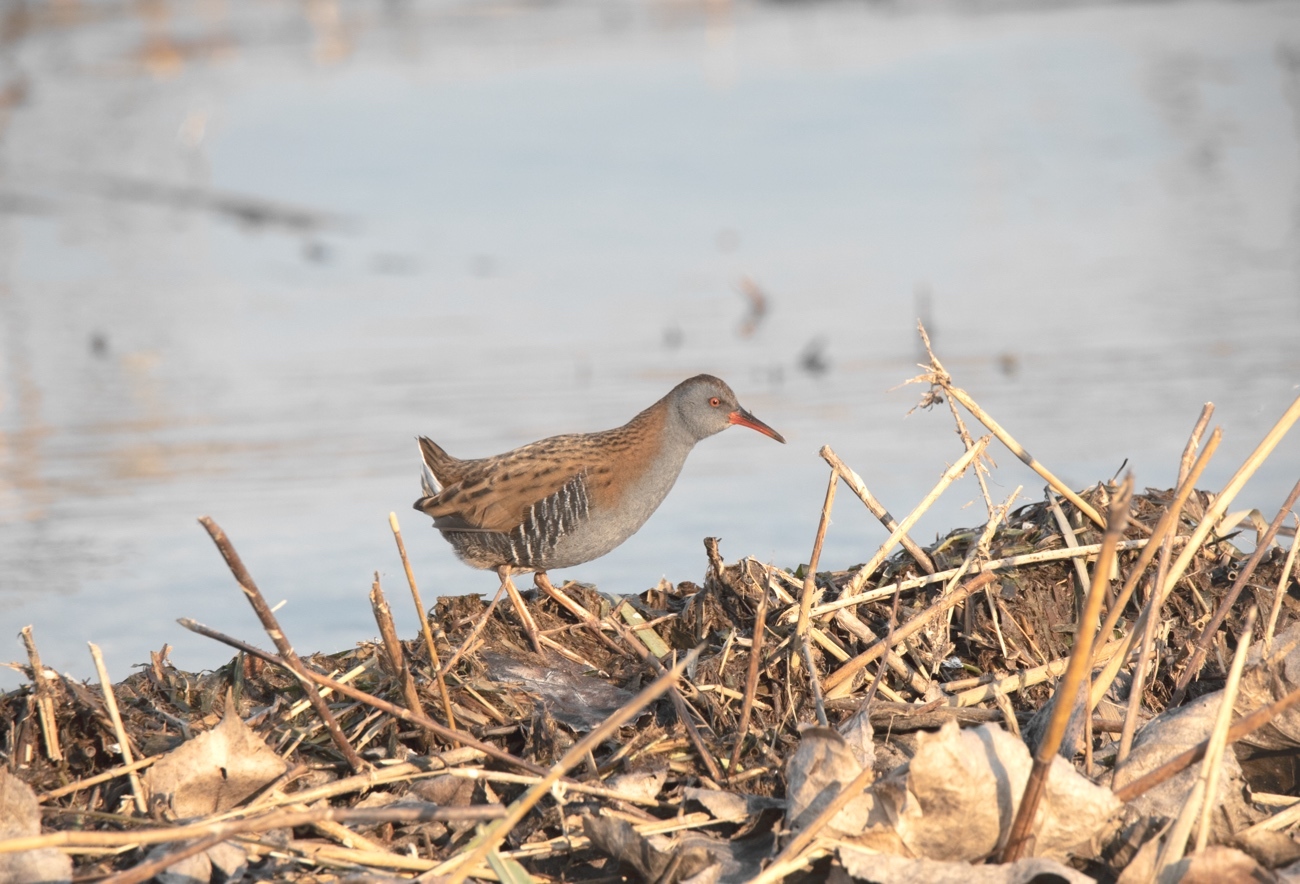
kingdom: Animalia
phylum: Chordata
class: Aves
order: Gruiformes
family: Rallidae
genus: Rallus
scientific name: Rallus aquaticus
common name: Water rail
